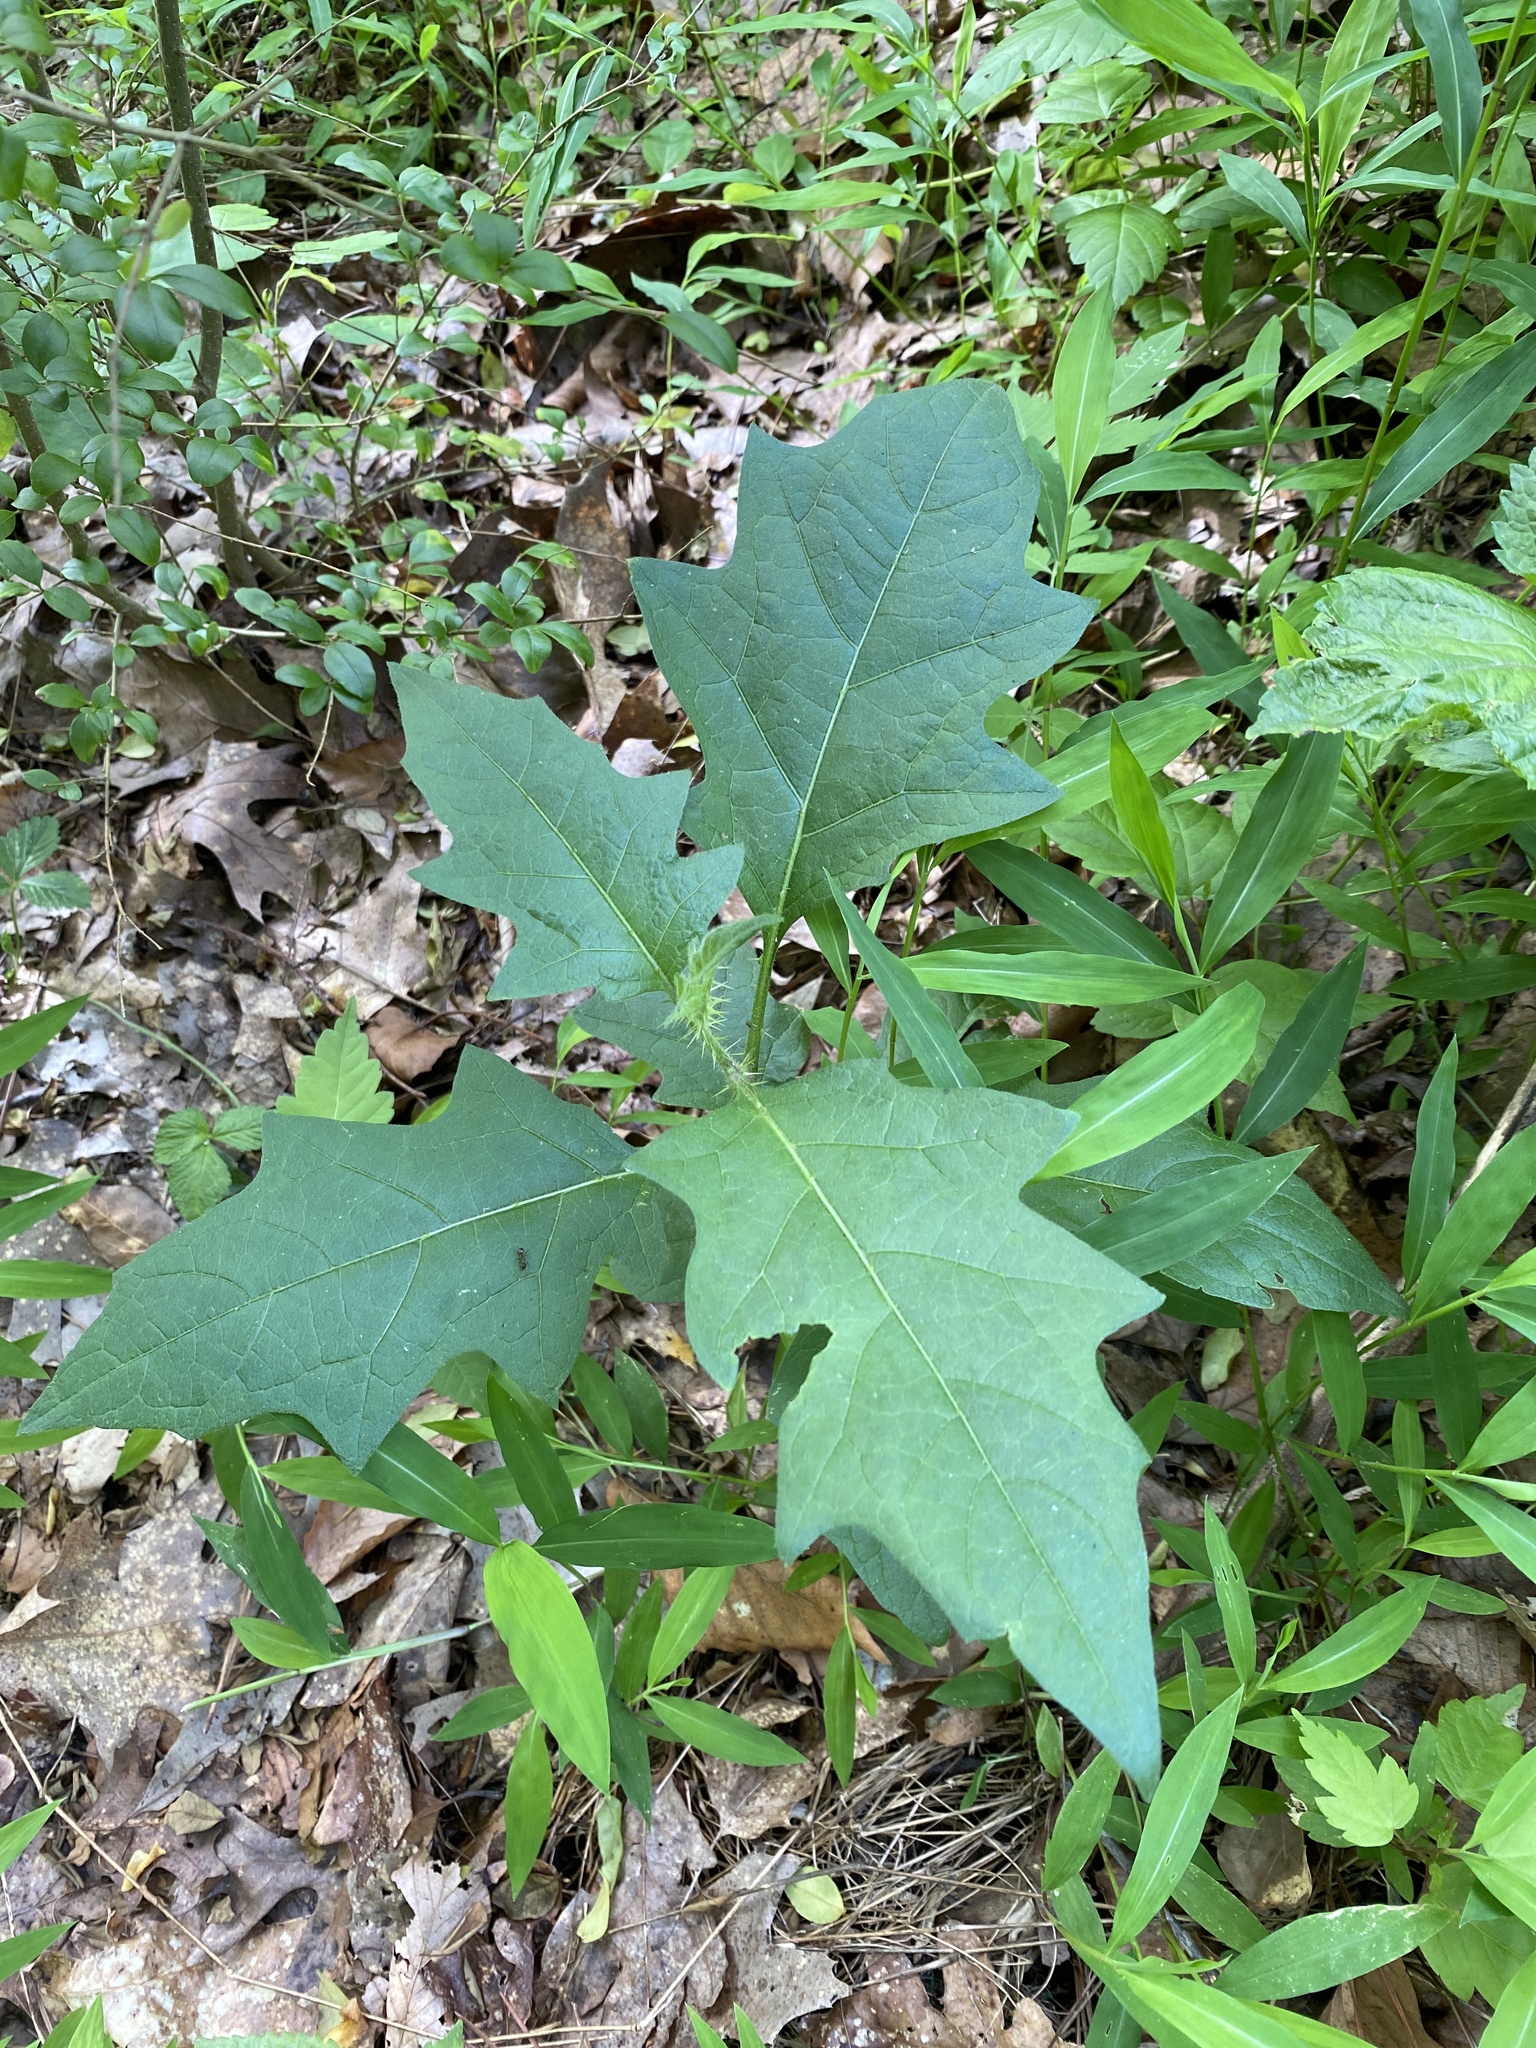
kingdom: Plantae
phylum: Tracheophyta
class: Magnoliopsida
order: Solanales
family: Solanaceae
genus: Solanum
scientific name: Solanum carolinense
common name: Horse-nettle
